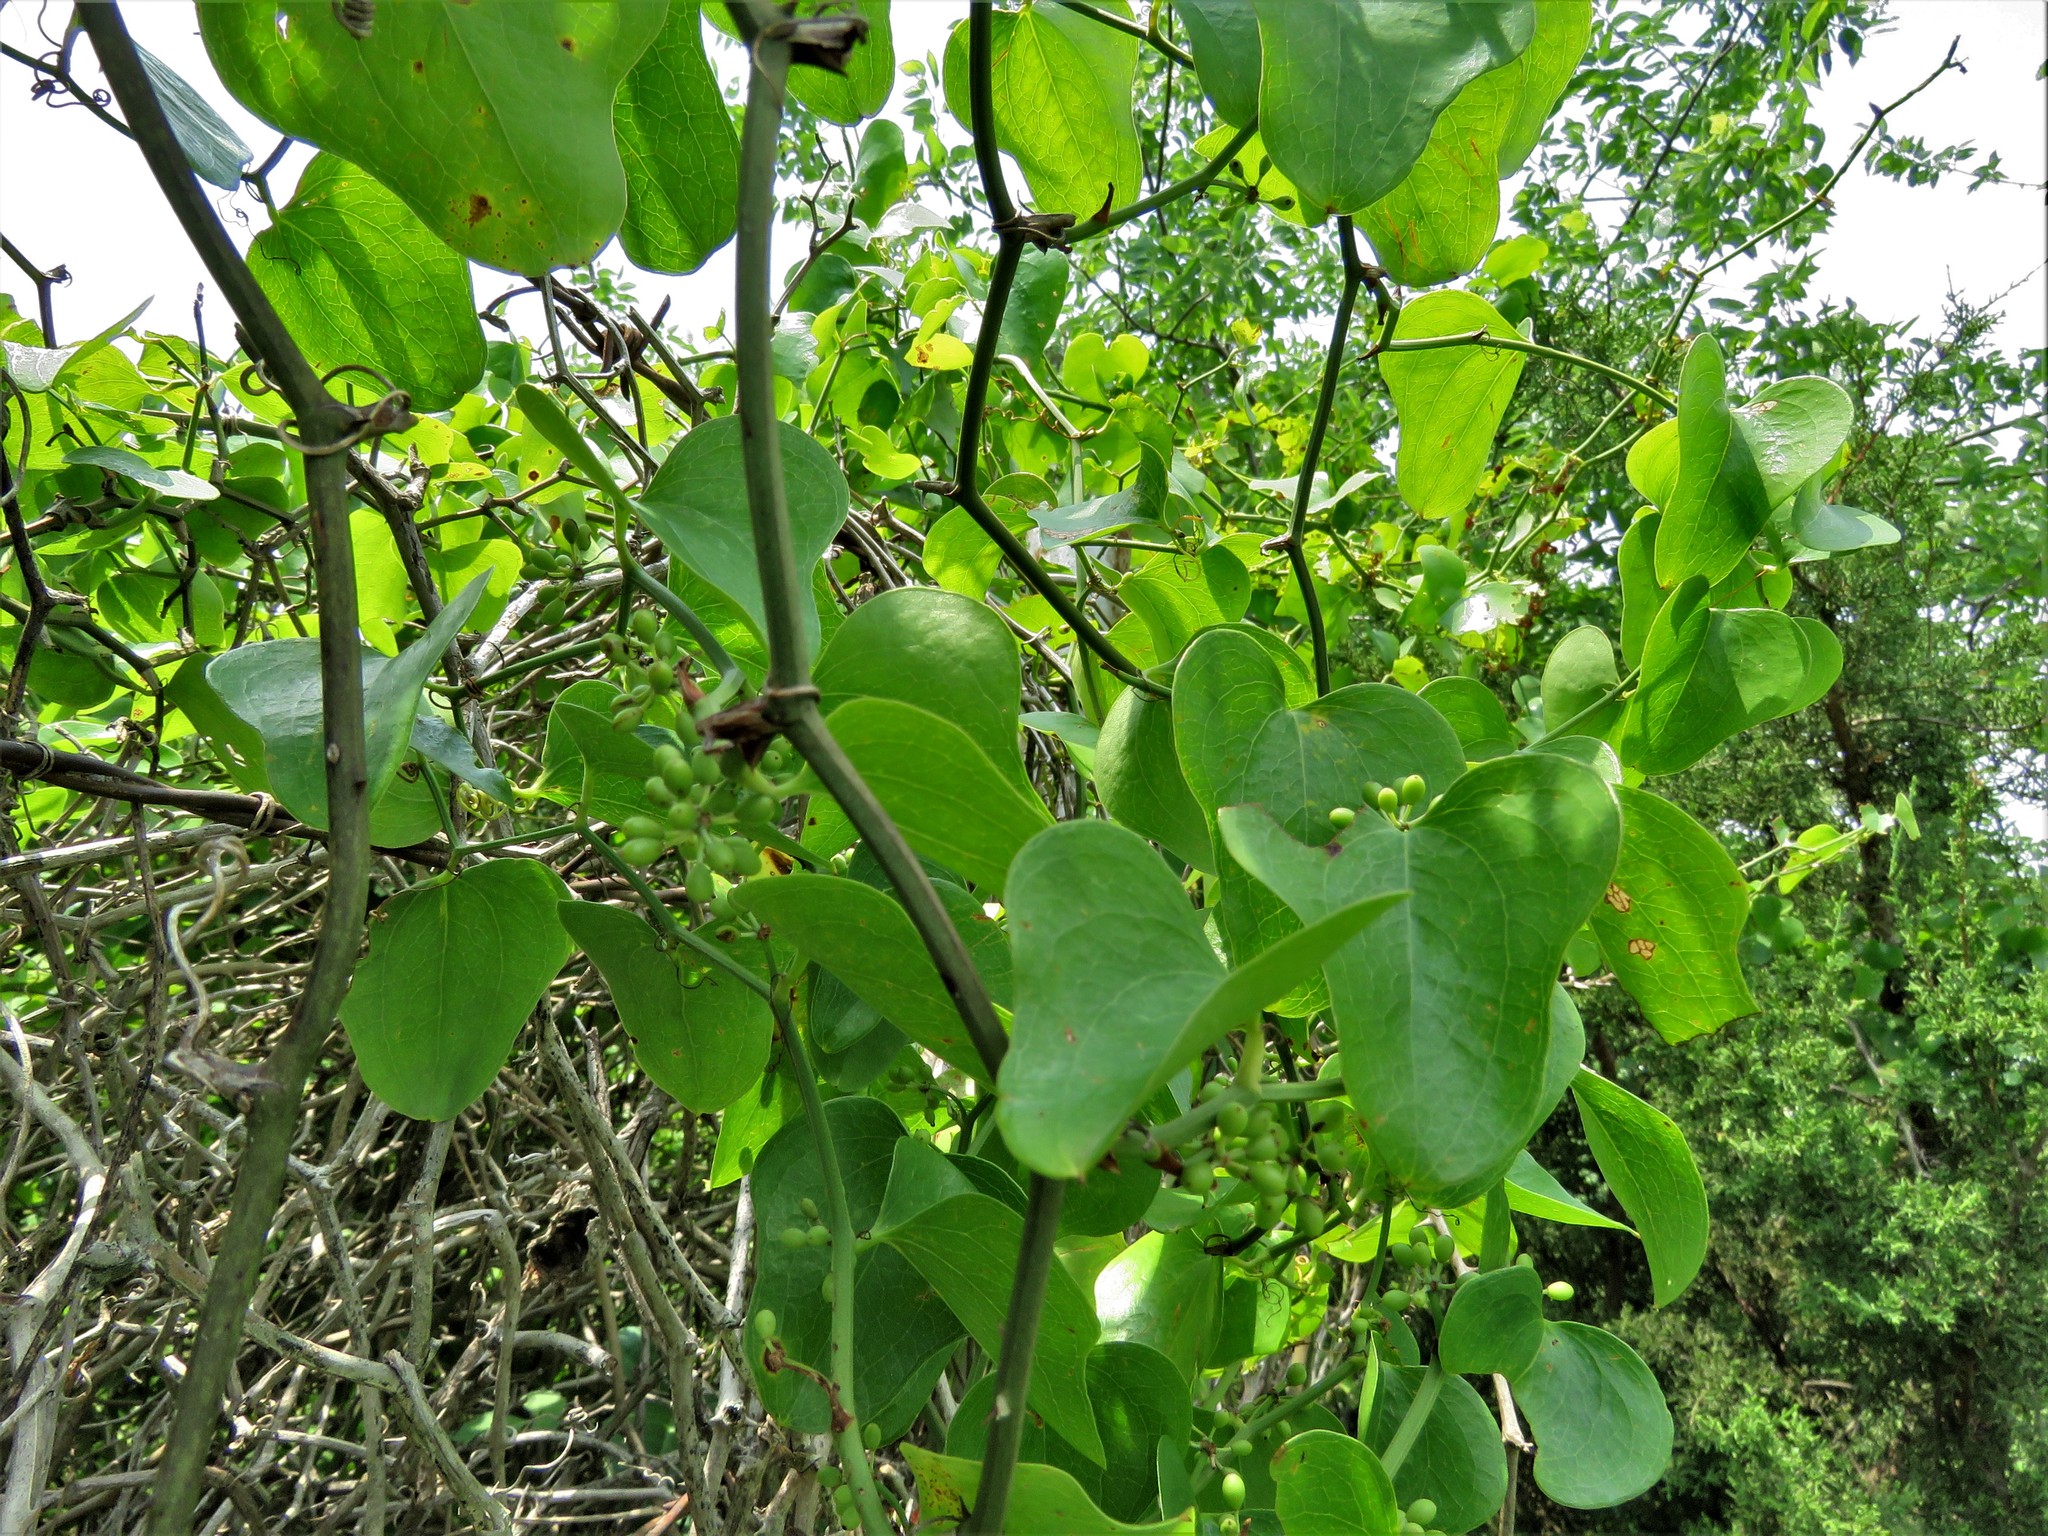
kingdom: Plantae
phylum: Tracheophyta
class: Liliopsida
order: Liliales
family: Smilacaceae
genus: Smilax
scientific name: Smilax bona-nox
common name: Catbrier
